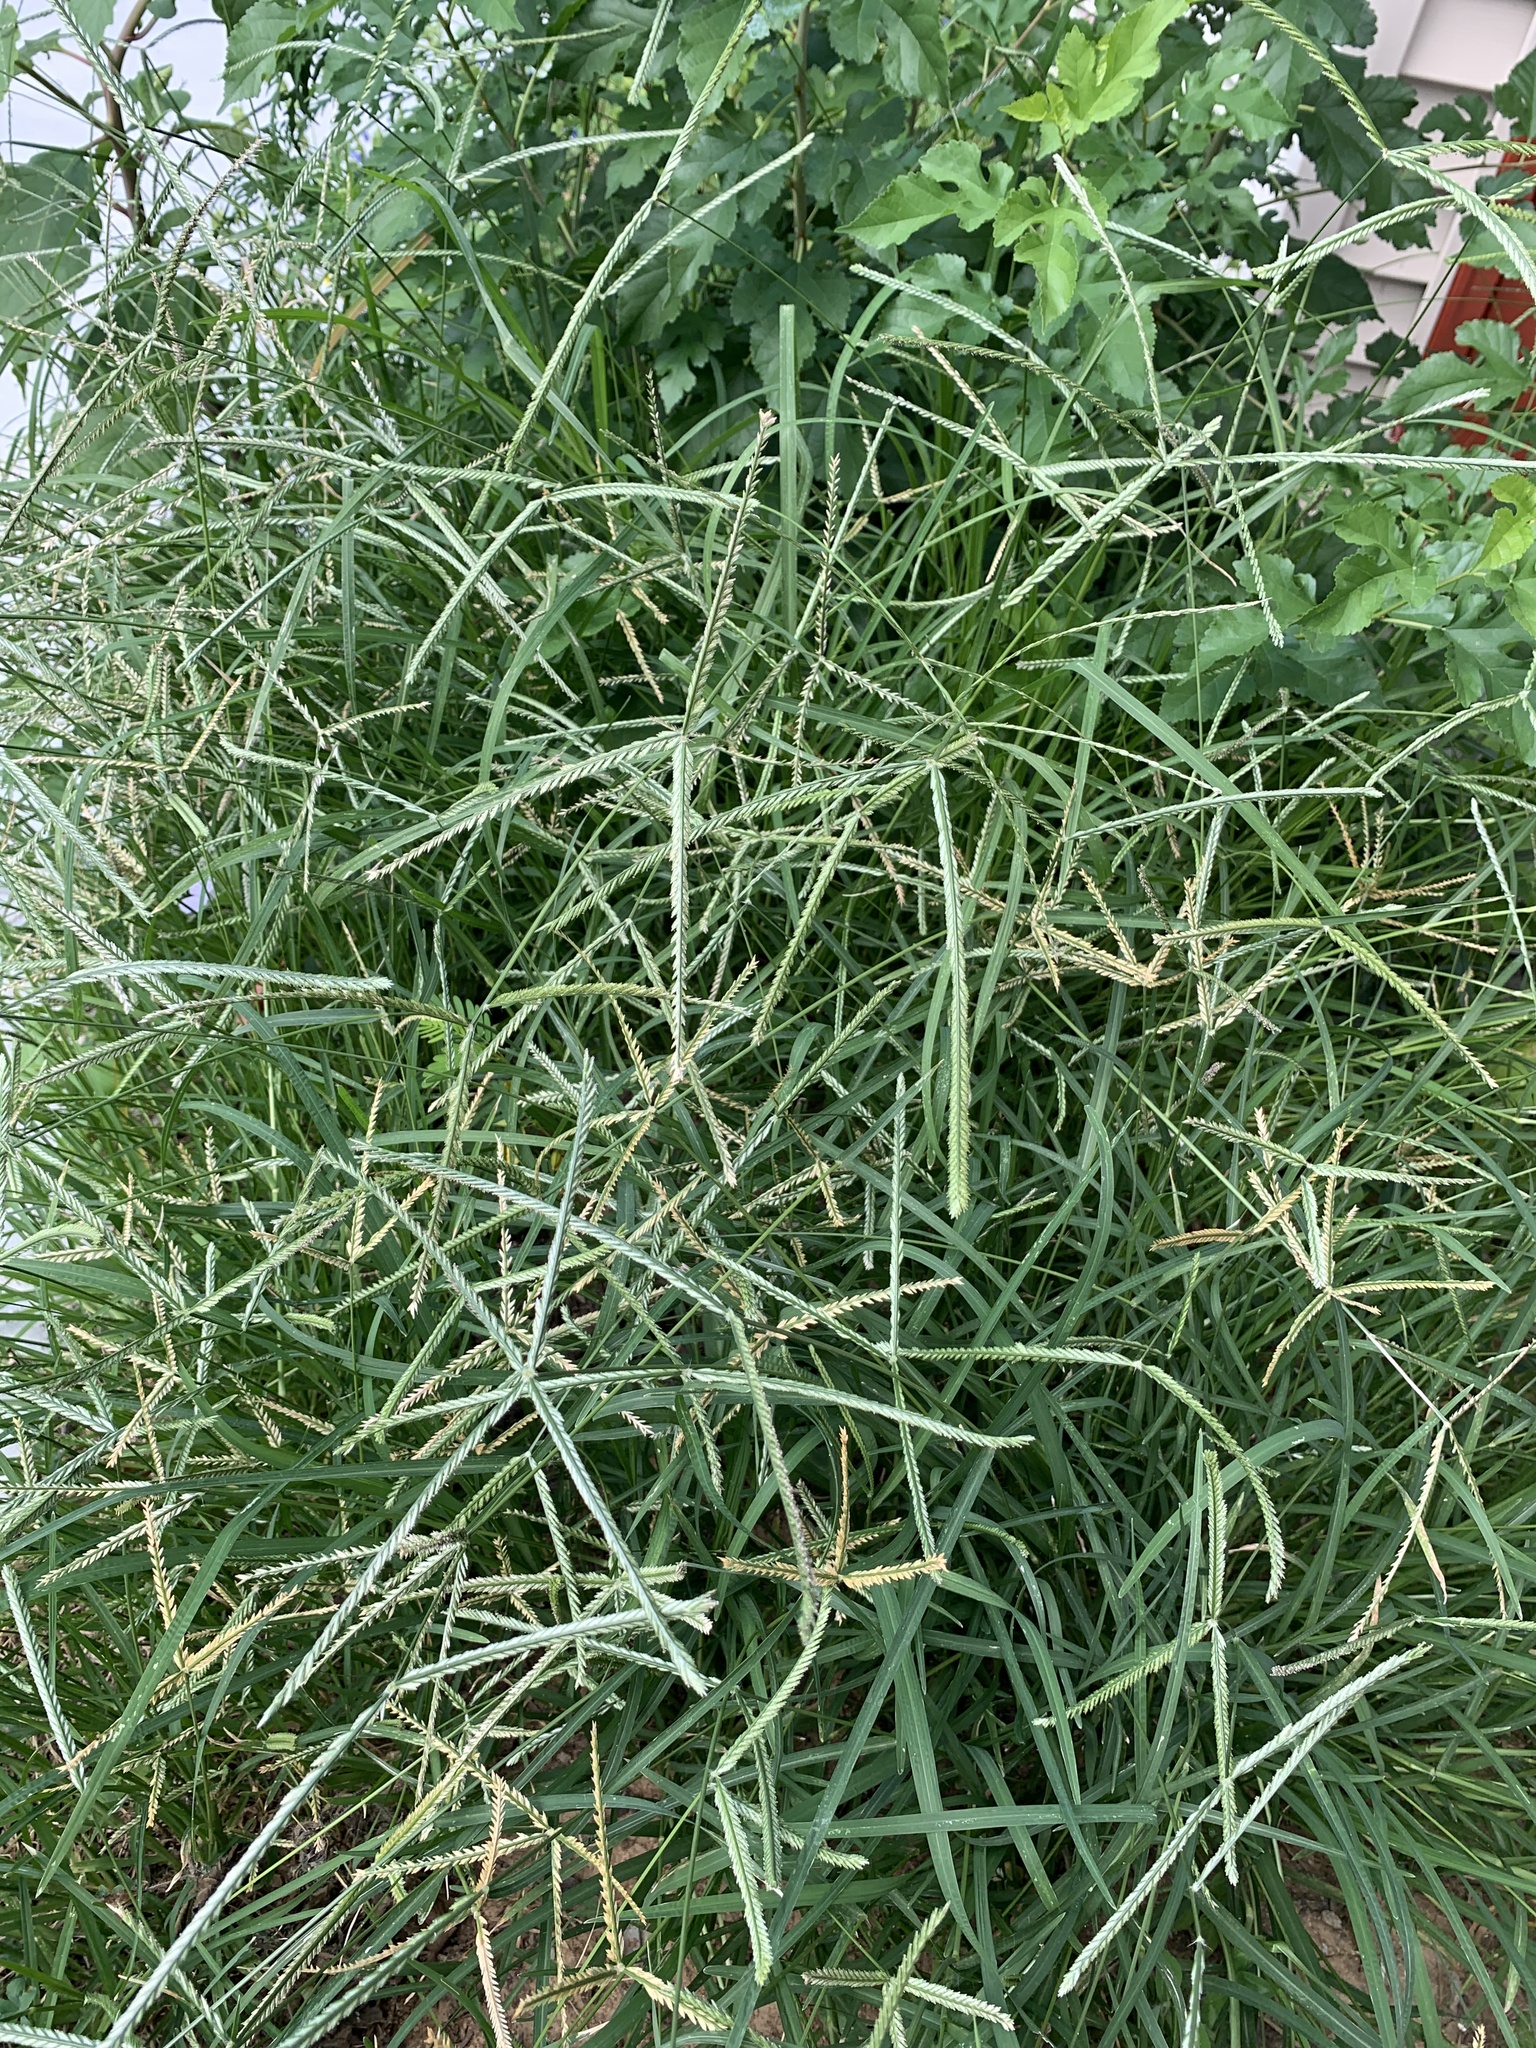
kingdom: Plantae
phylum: Tracheophyta
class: Liliopsida
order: Poales
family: Poaceae
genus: Eleusine
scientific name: Eleusine indica
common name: Yard-grass
